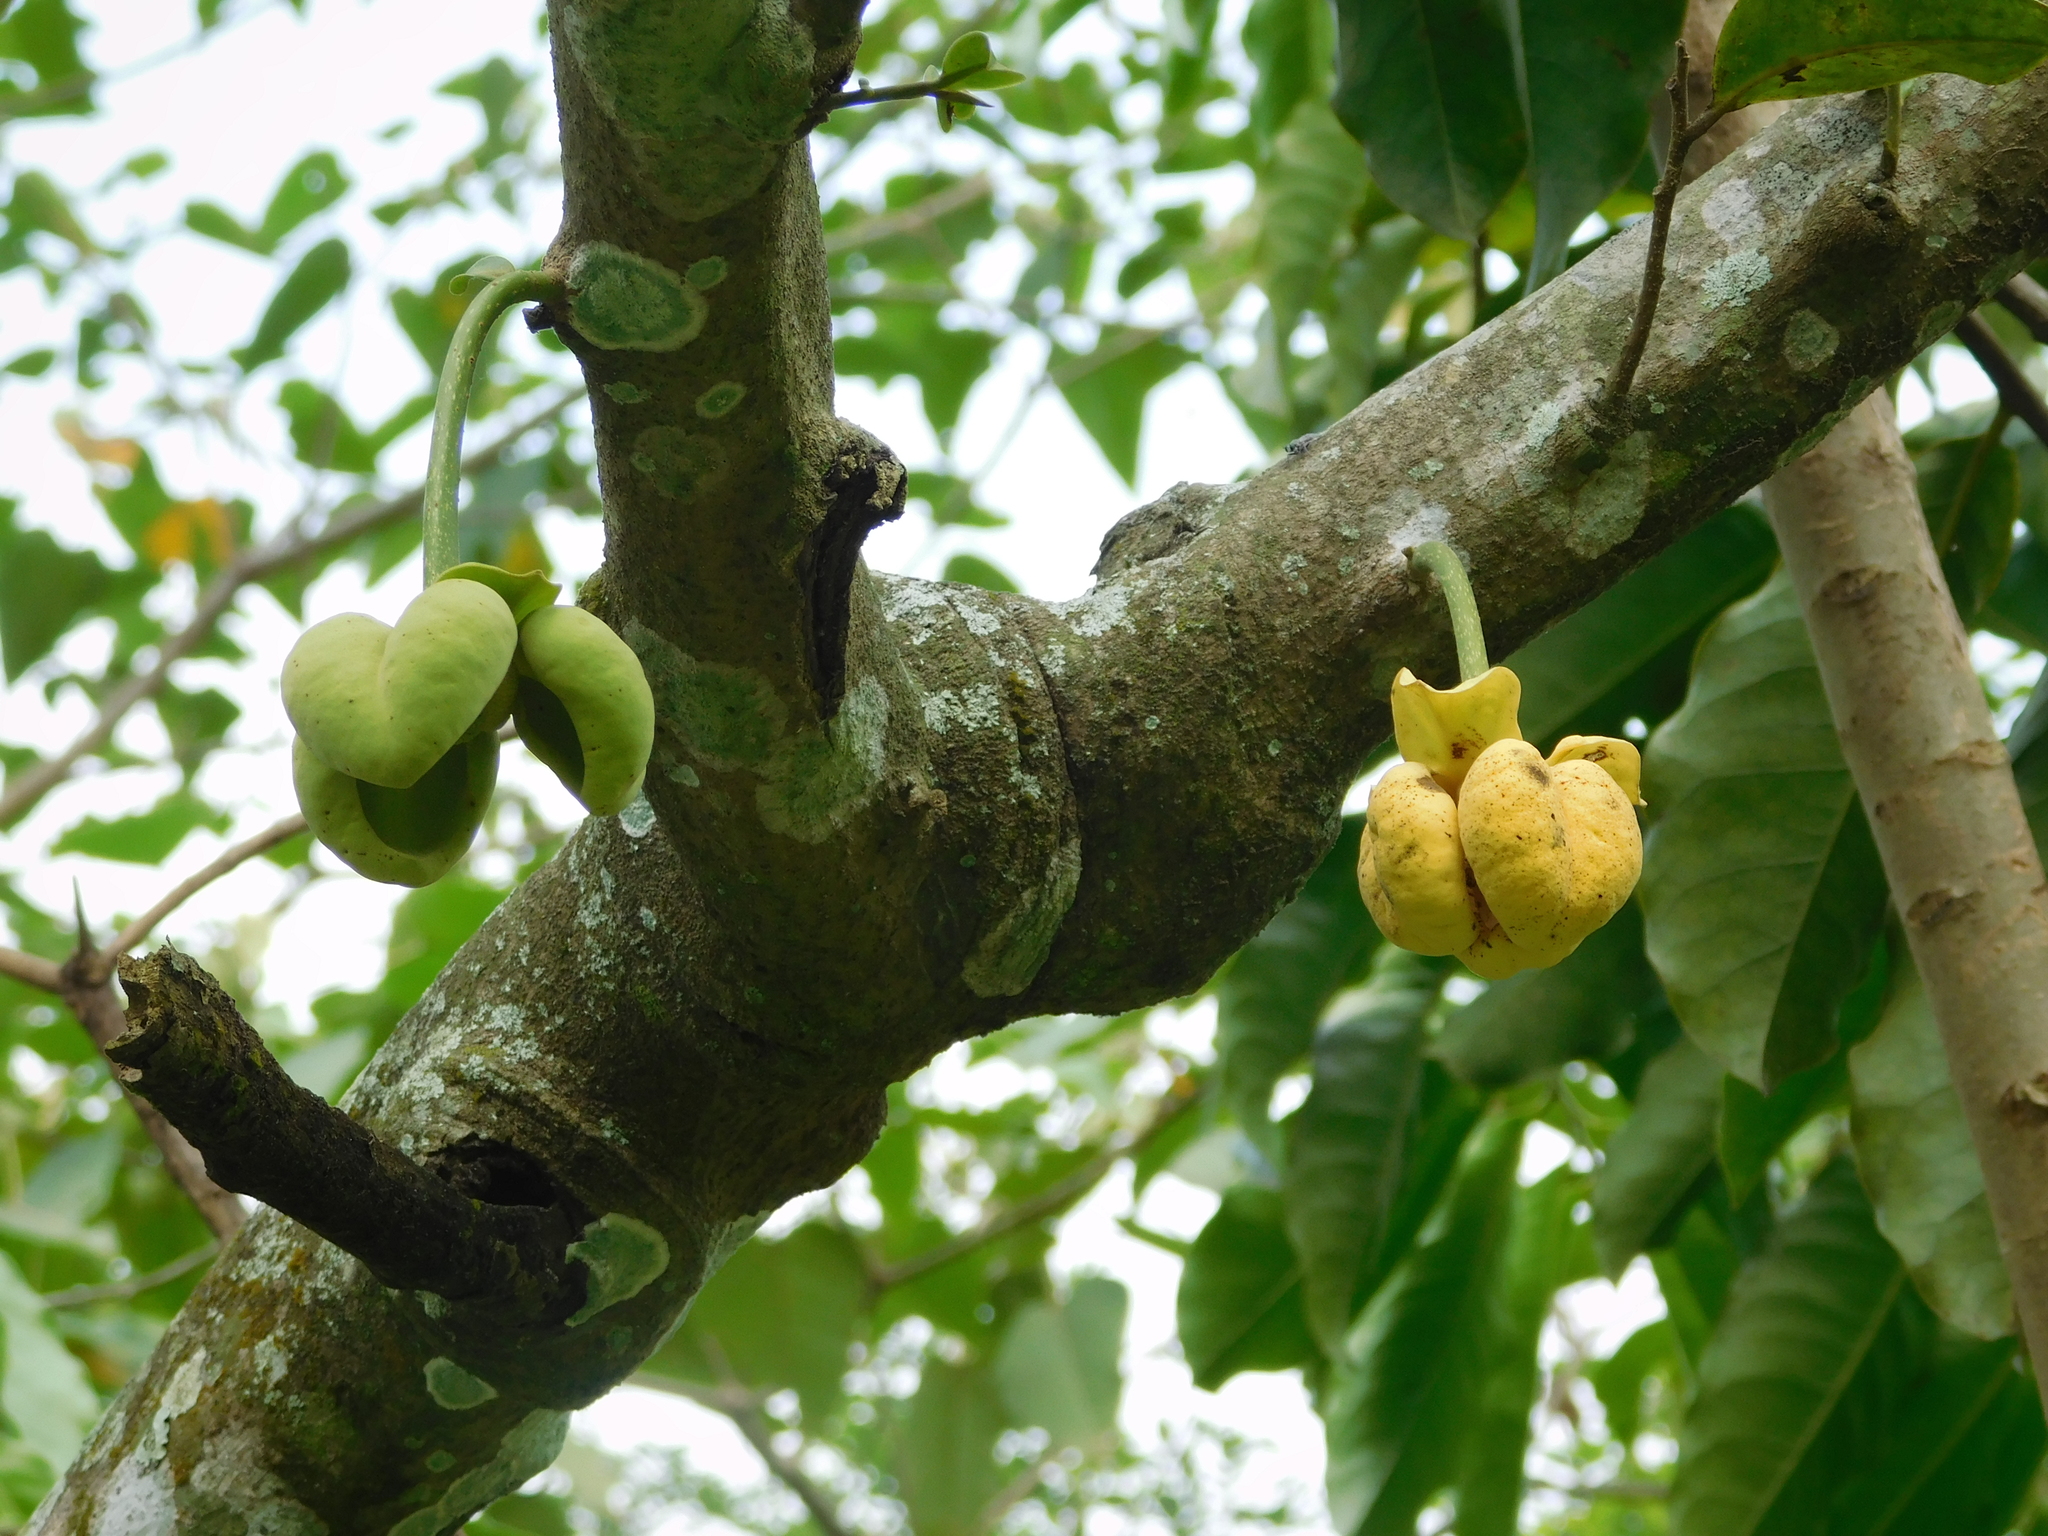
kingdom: Plantae
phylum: Tracheophyta
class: Magnoliopsida
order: Magnoliales
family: Annonaceae
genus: Cymbopetalum
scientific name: Cymbopetalum baillonii
